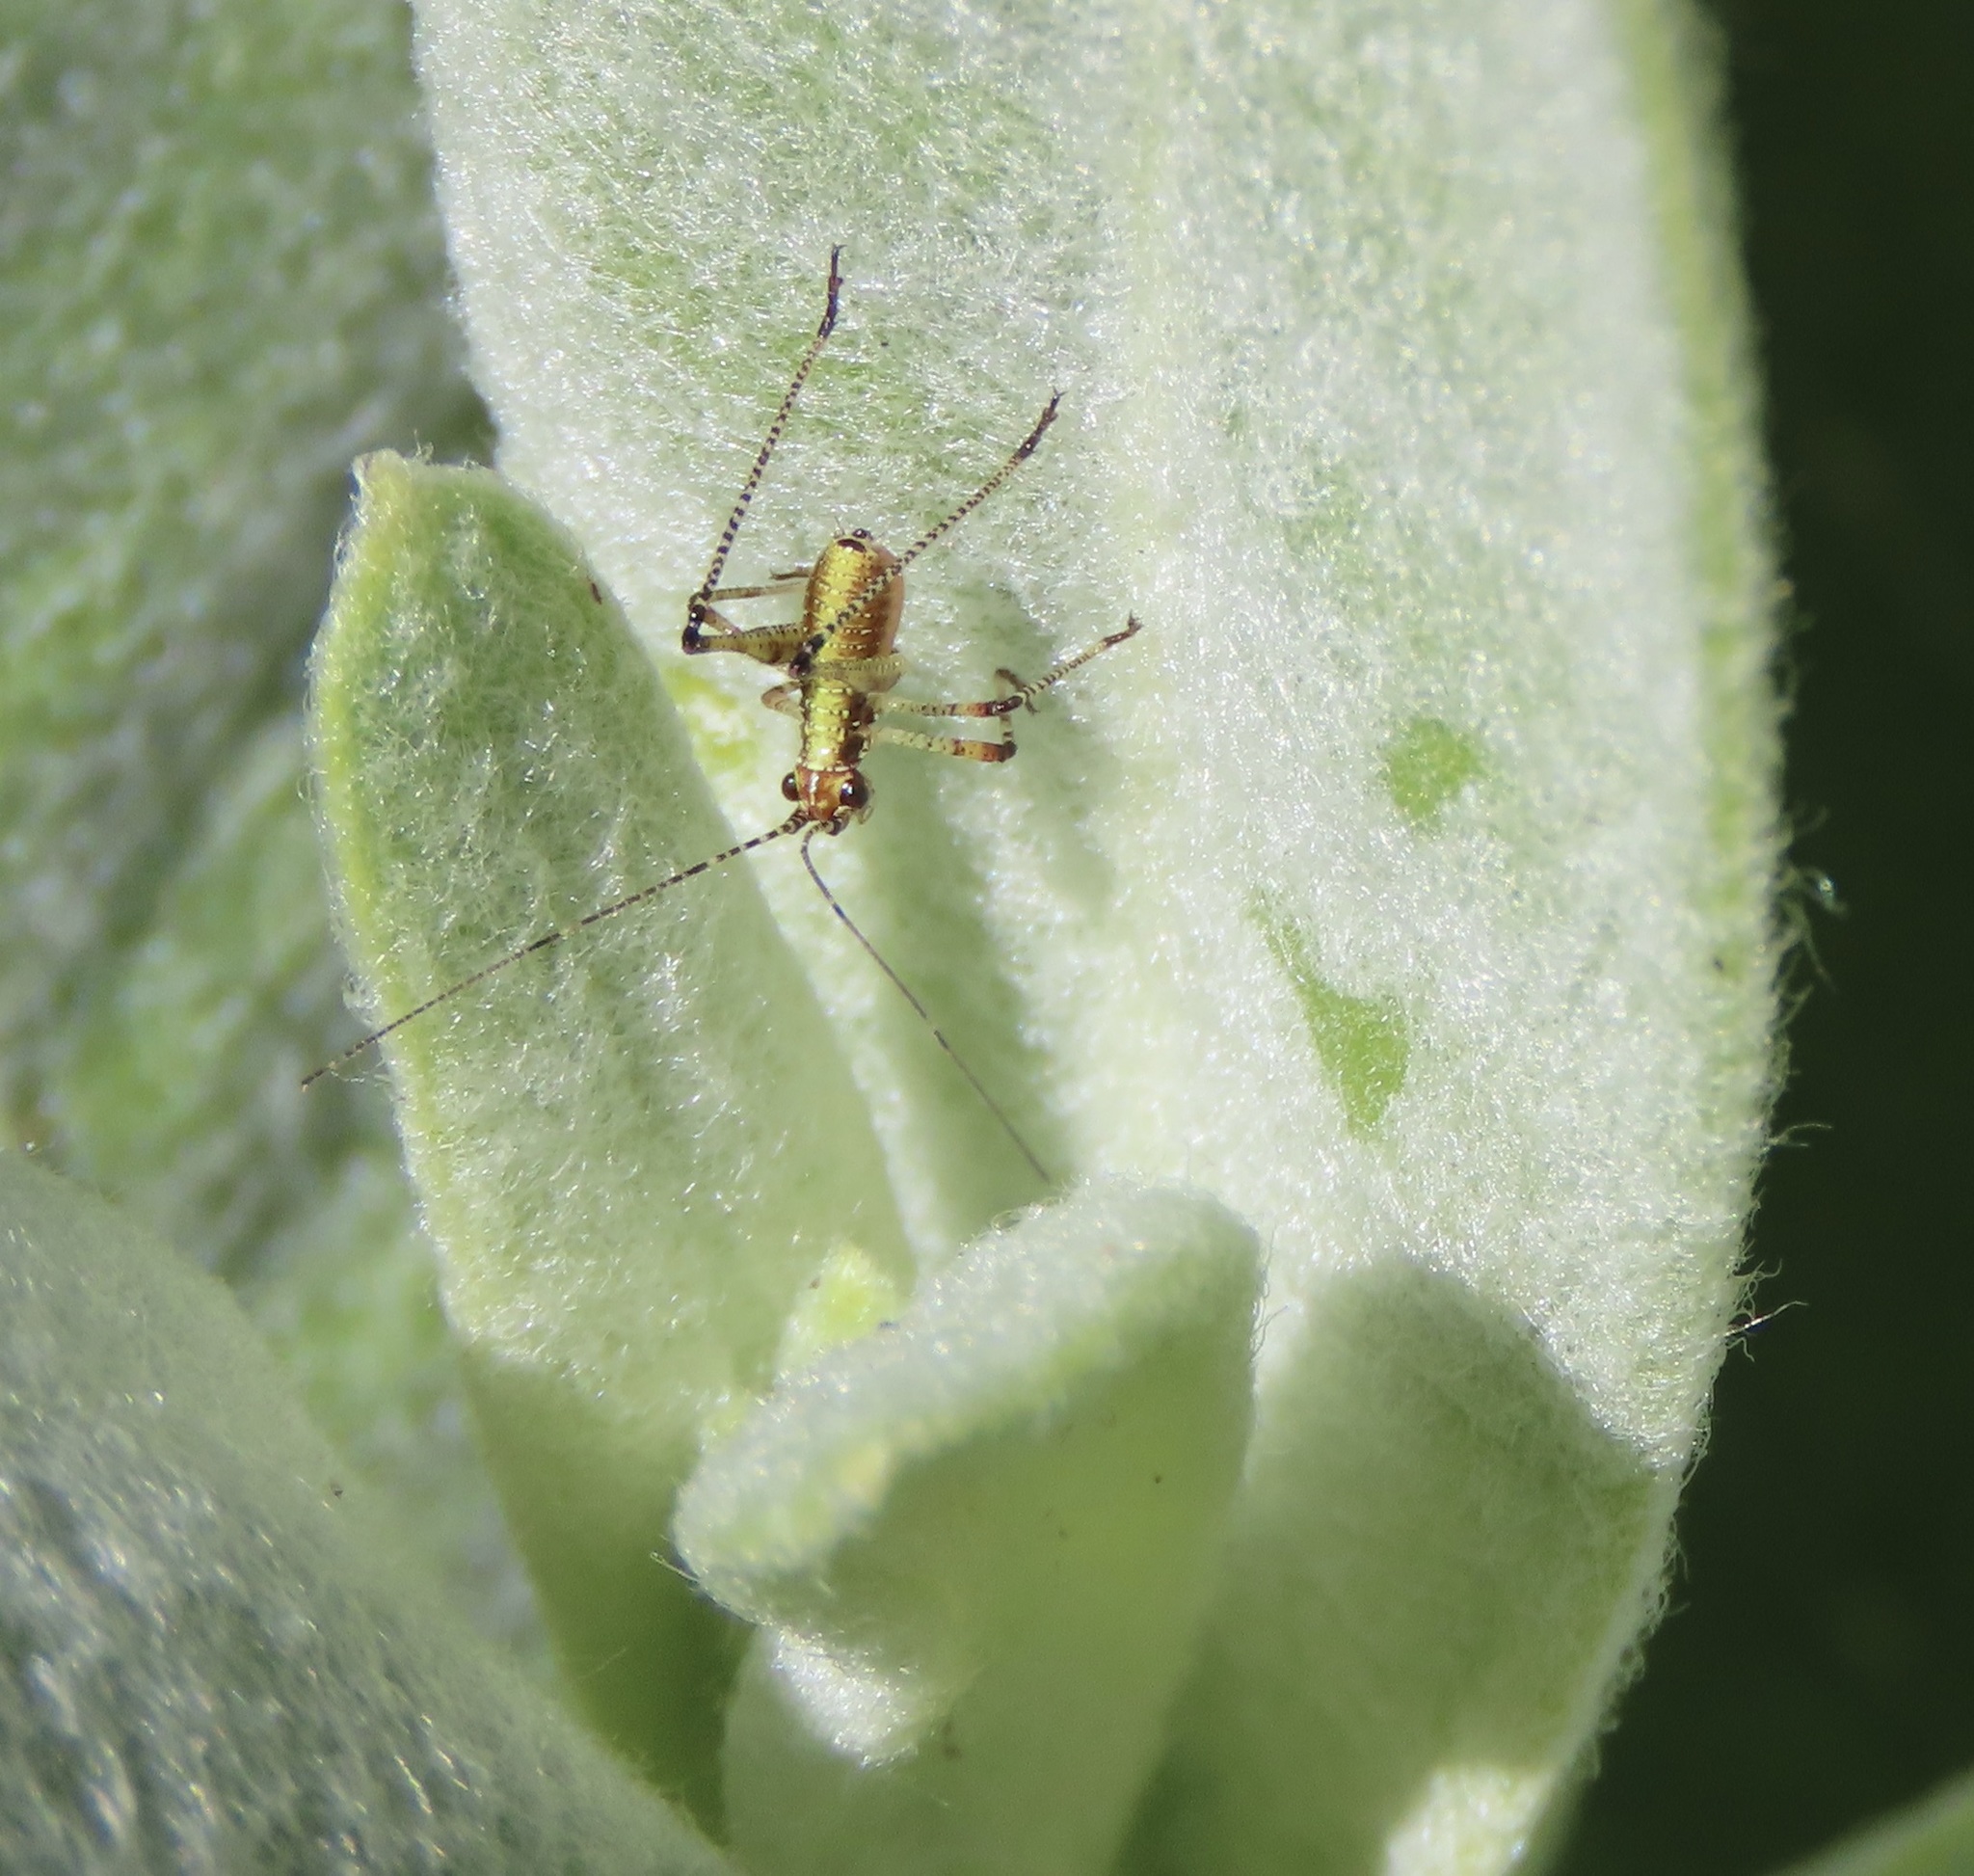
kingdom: Animalia
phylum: Arthropoda
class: Insecta
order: Orthoptera
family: Tettigoniidae
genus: Phaneroptera
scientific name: Phaneroptera nana
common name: Southern sickle bush-cricket
